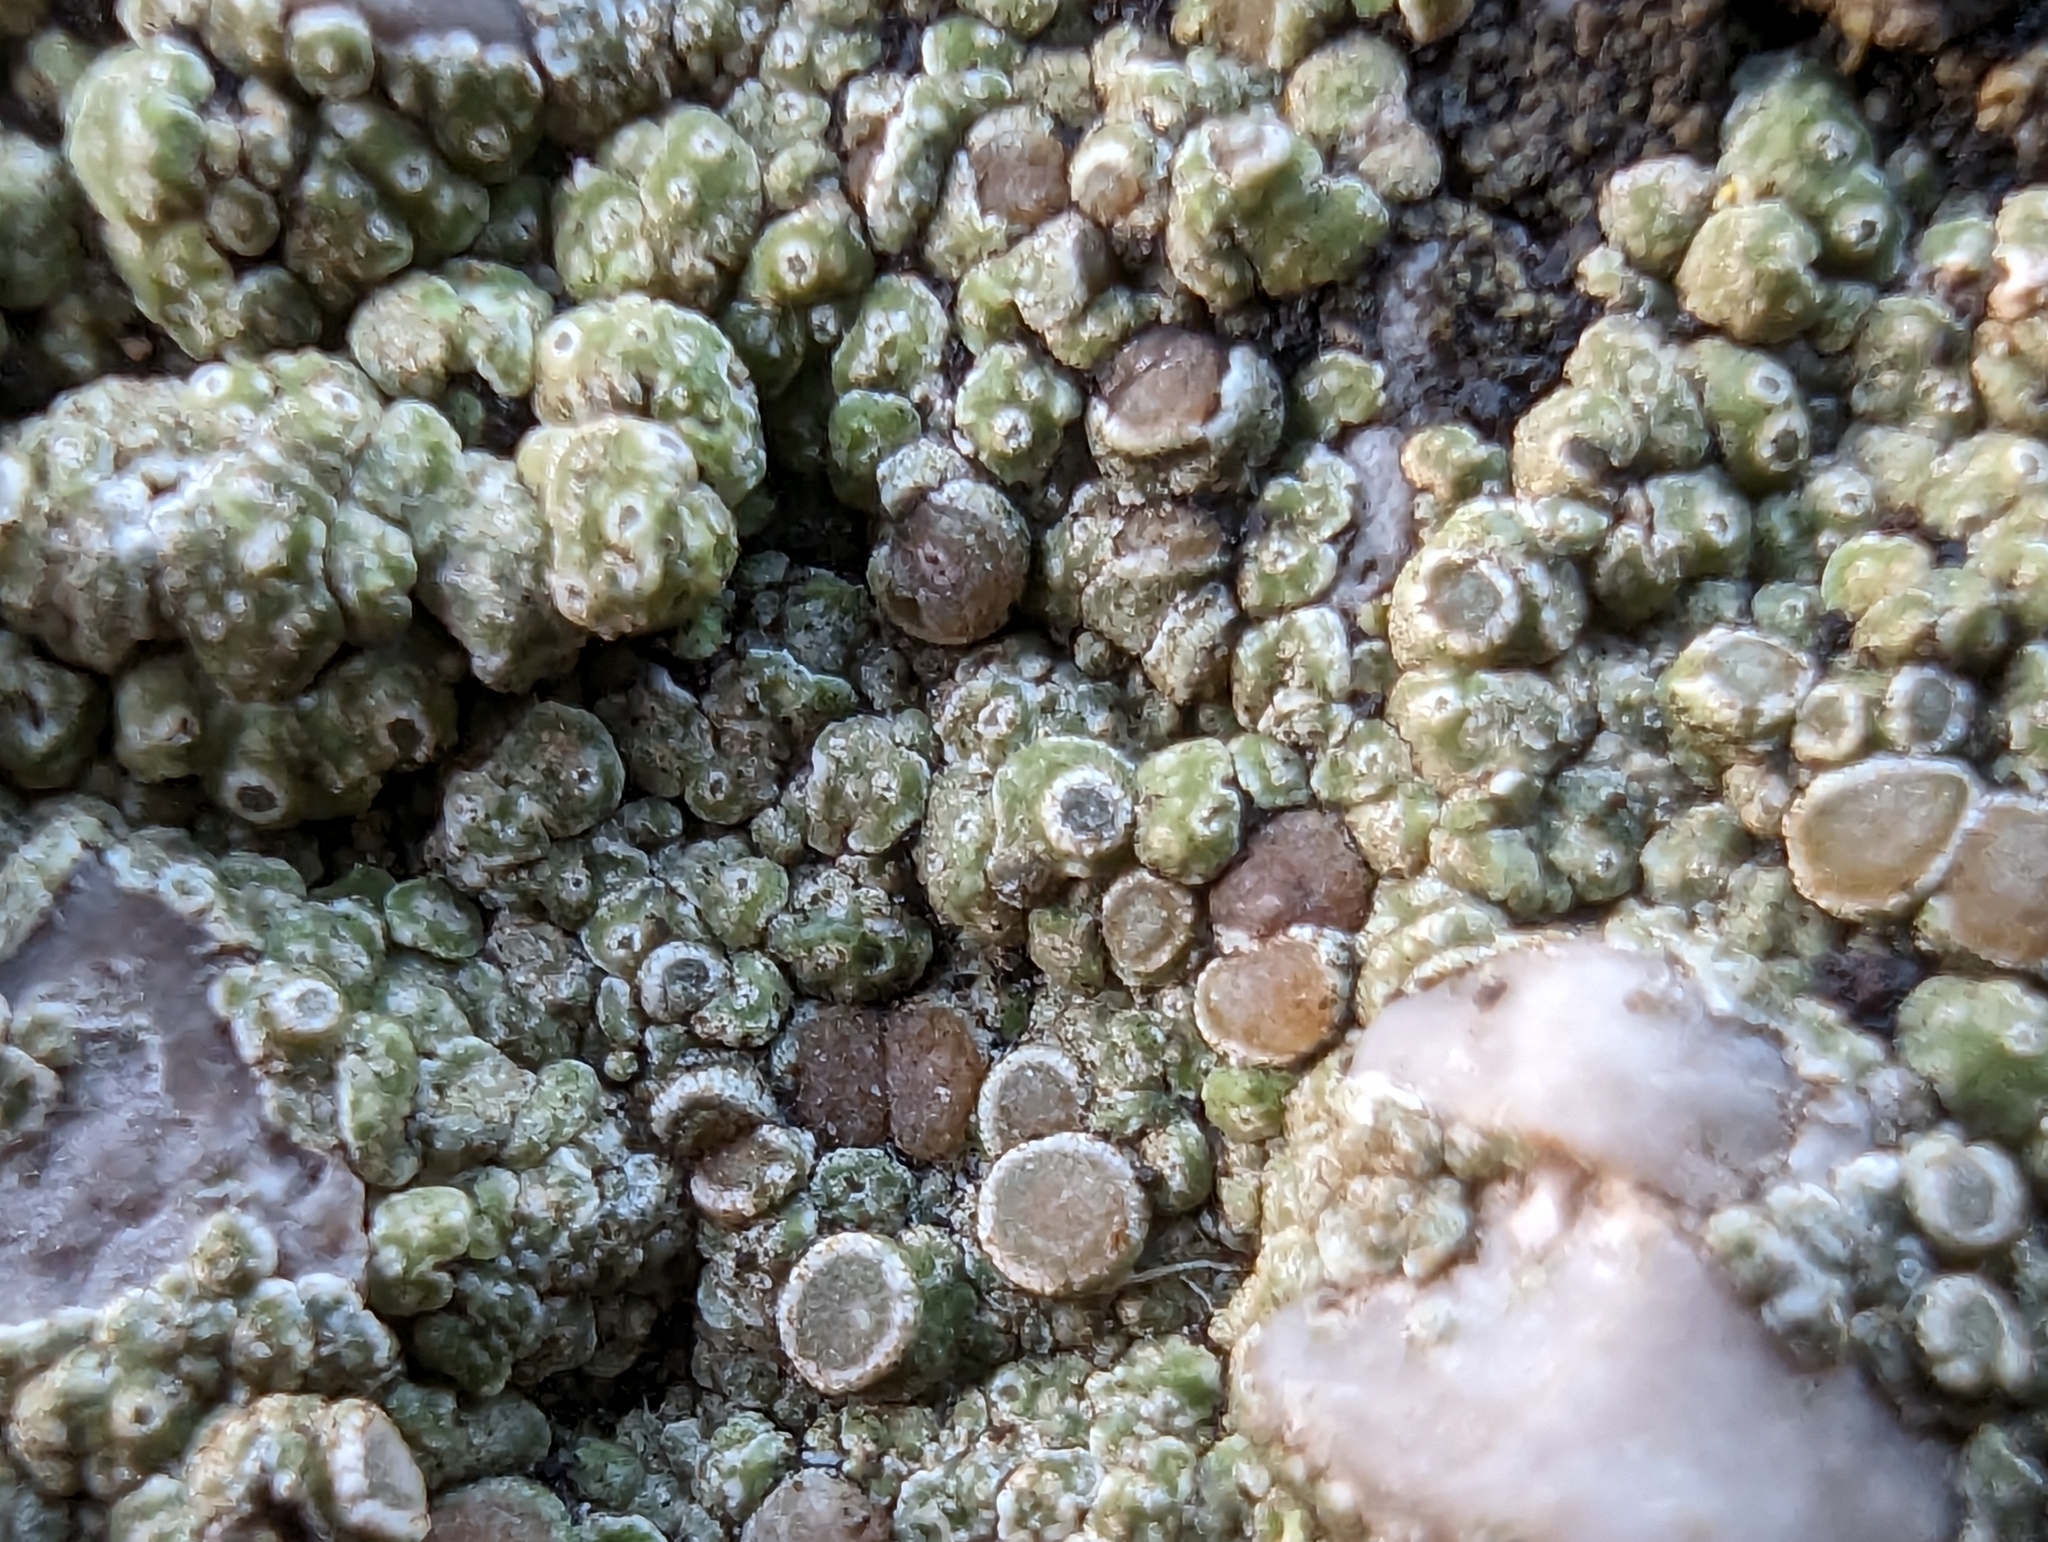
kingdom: Fungi
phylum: Ascomycota
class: Lecanoromycetes
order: Pertusariales
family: Megasporaceae
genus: Circinaria
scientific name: Circinaria contorta
